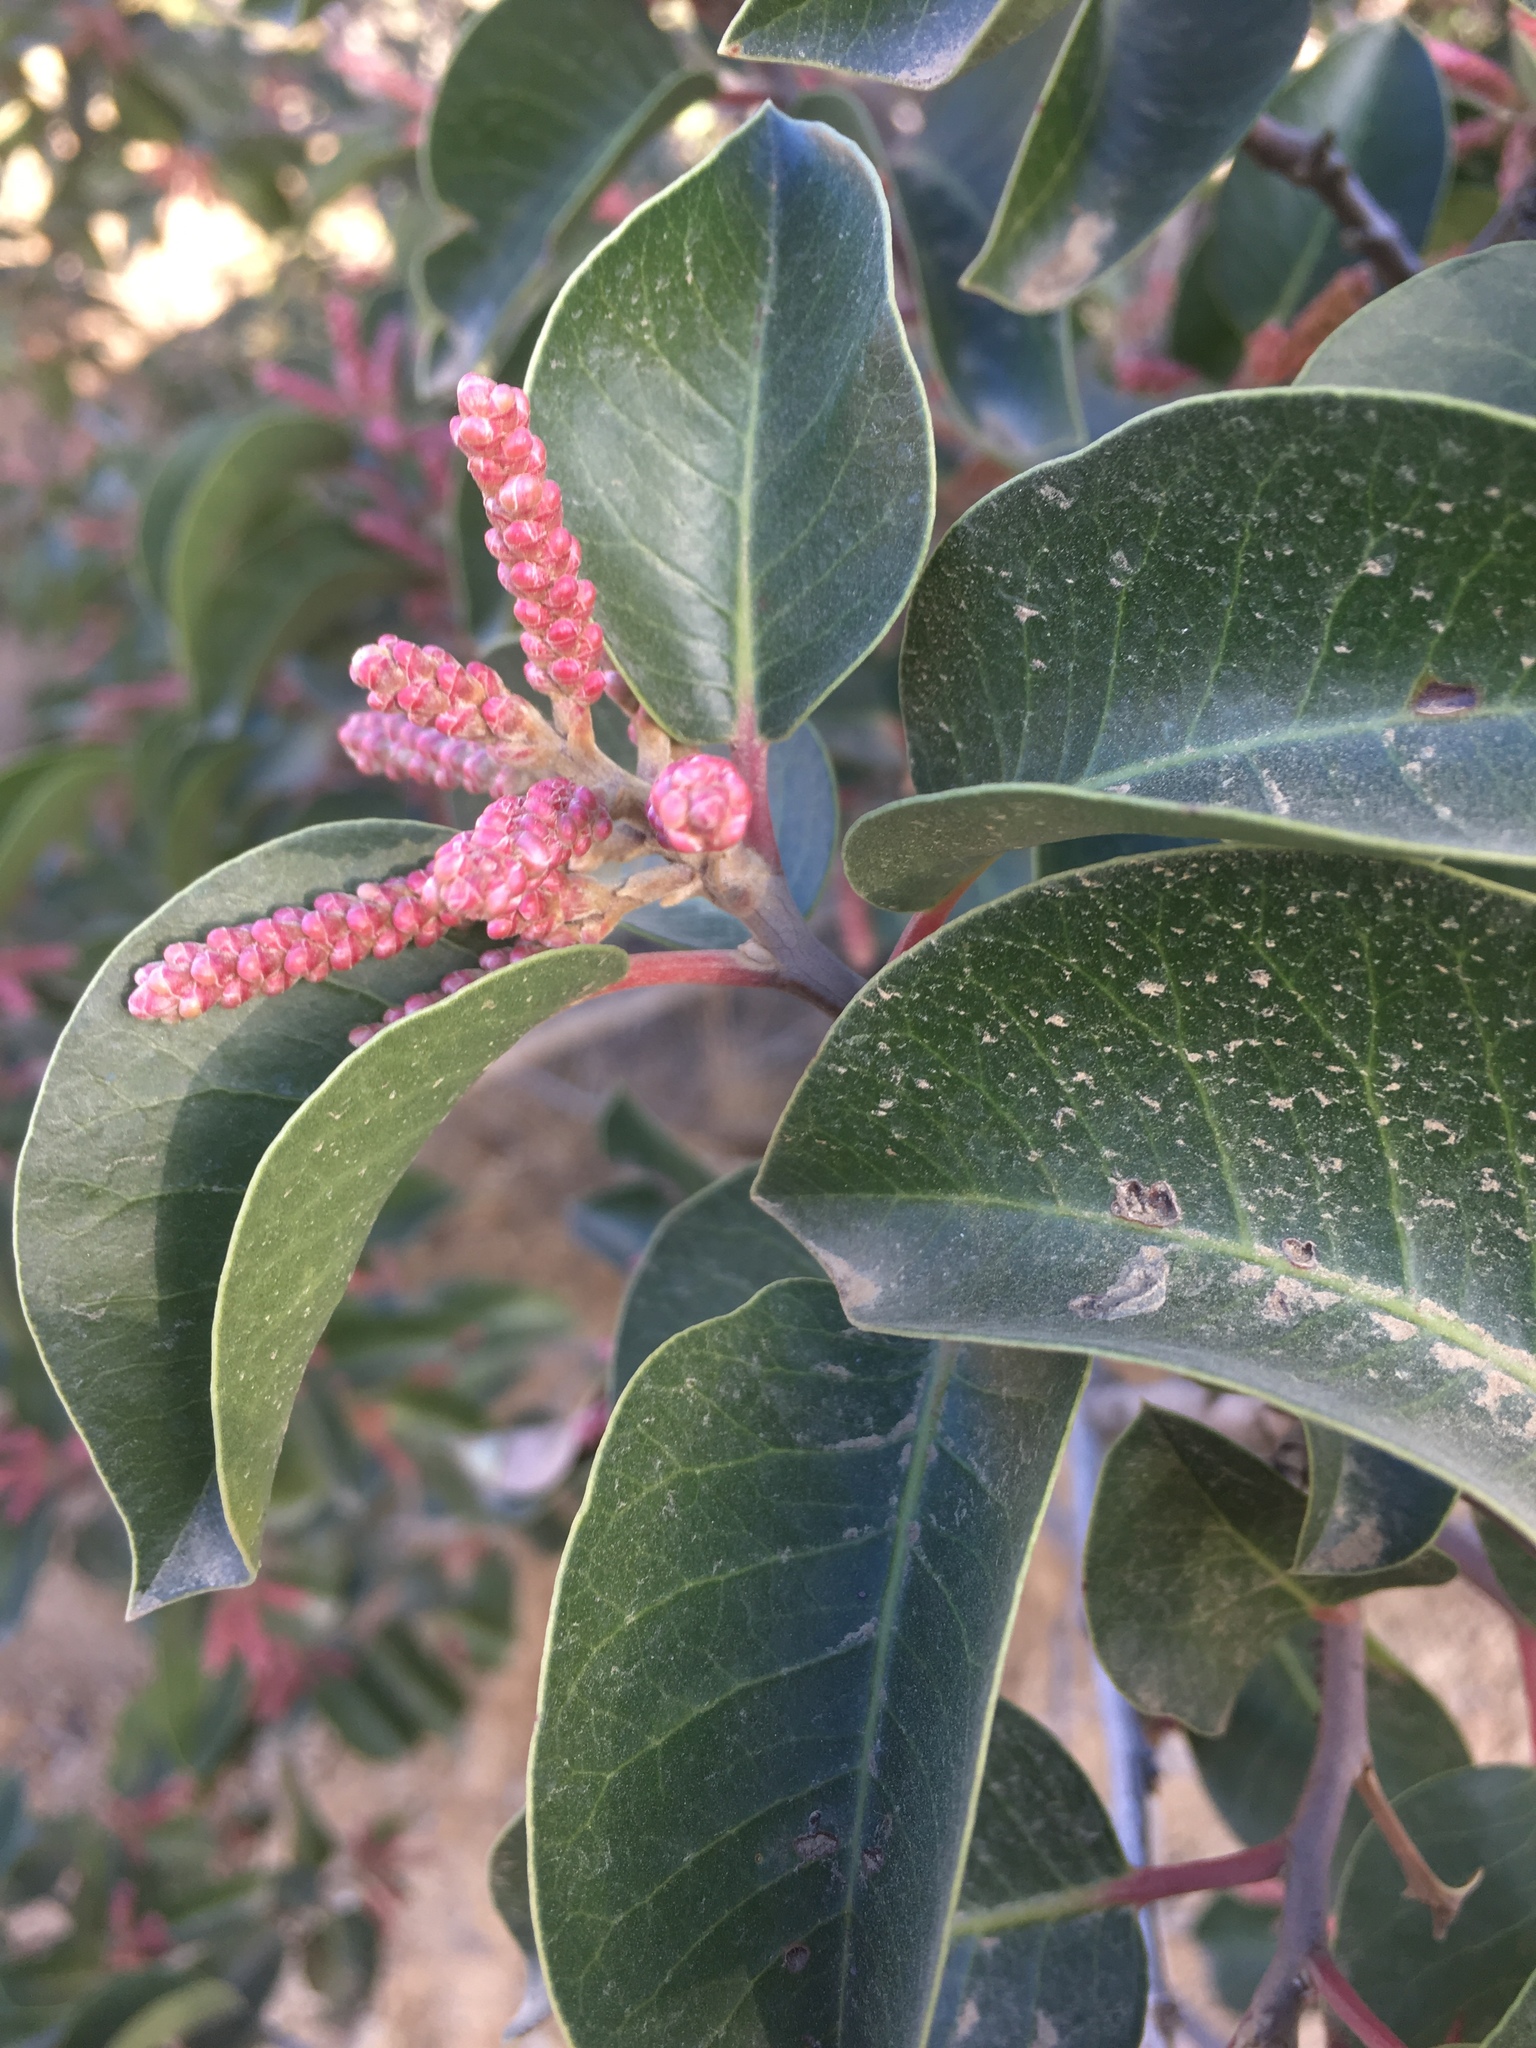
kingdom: Plantae
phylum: Tracheophyta
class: Magnoliopsida
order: Sapindales
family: Anacardiaceae
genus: Rhus
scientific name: Rhus ovata
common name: Sugar sumac
